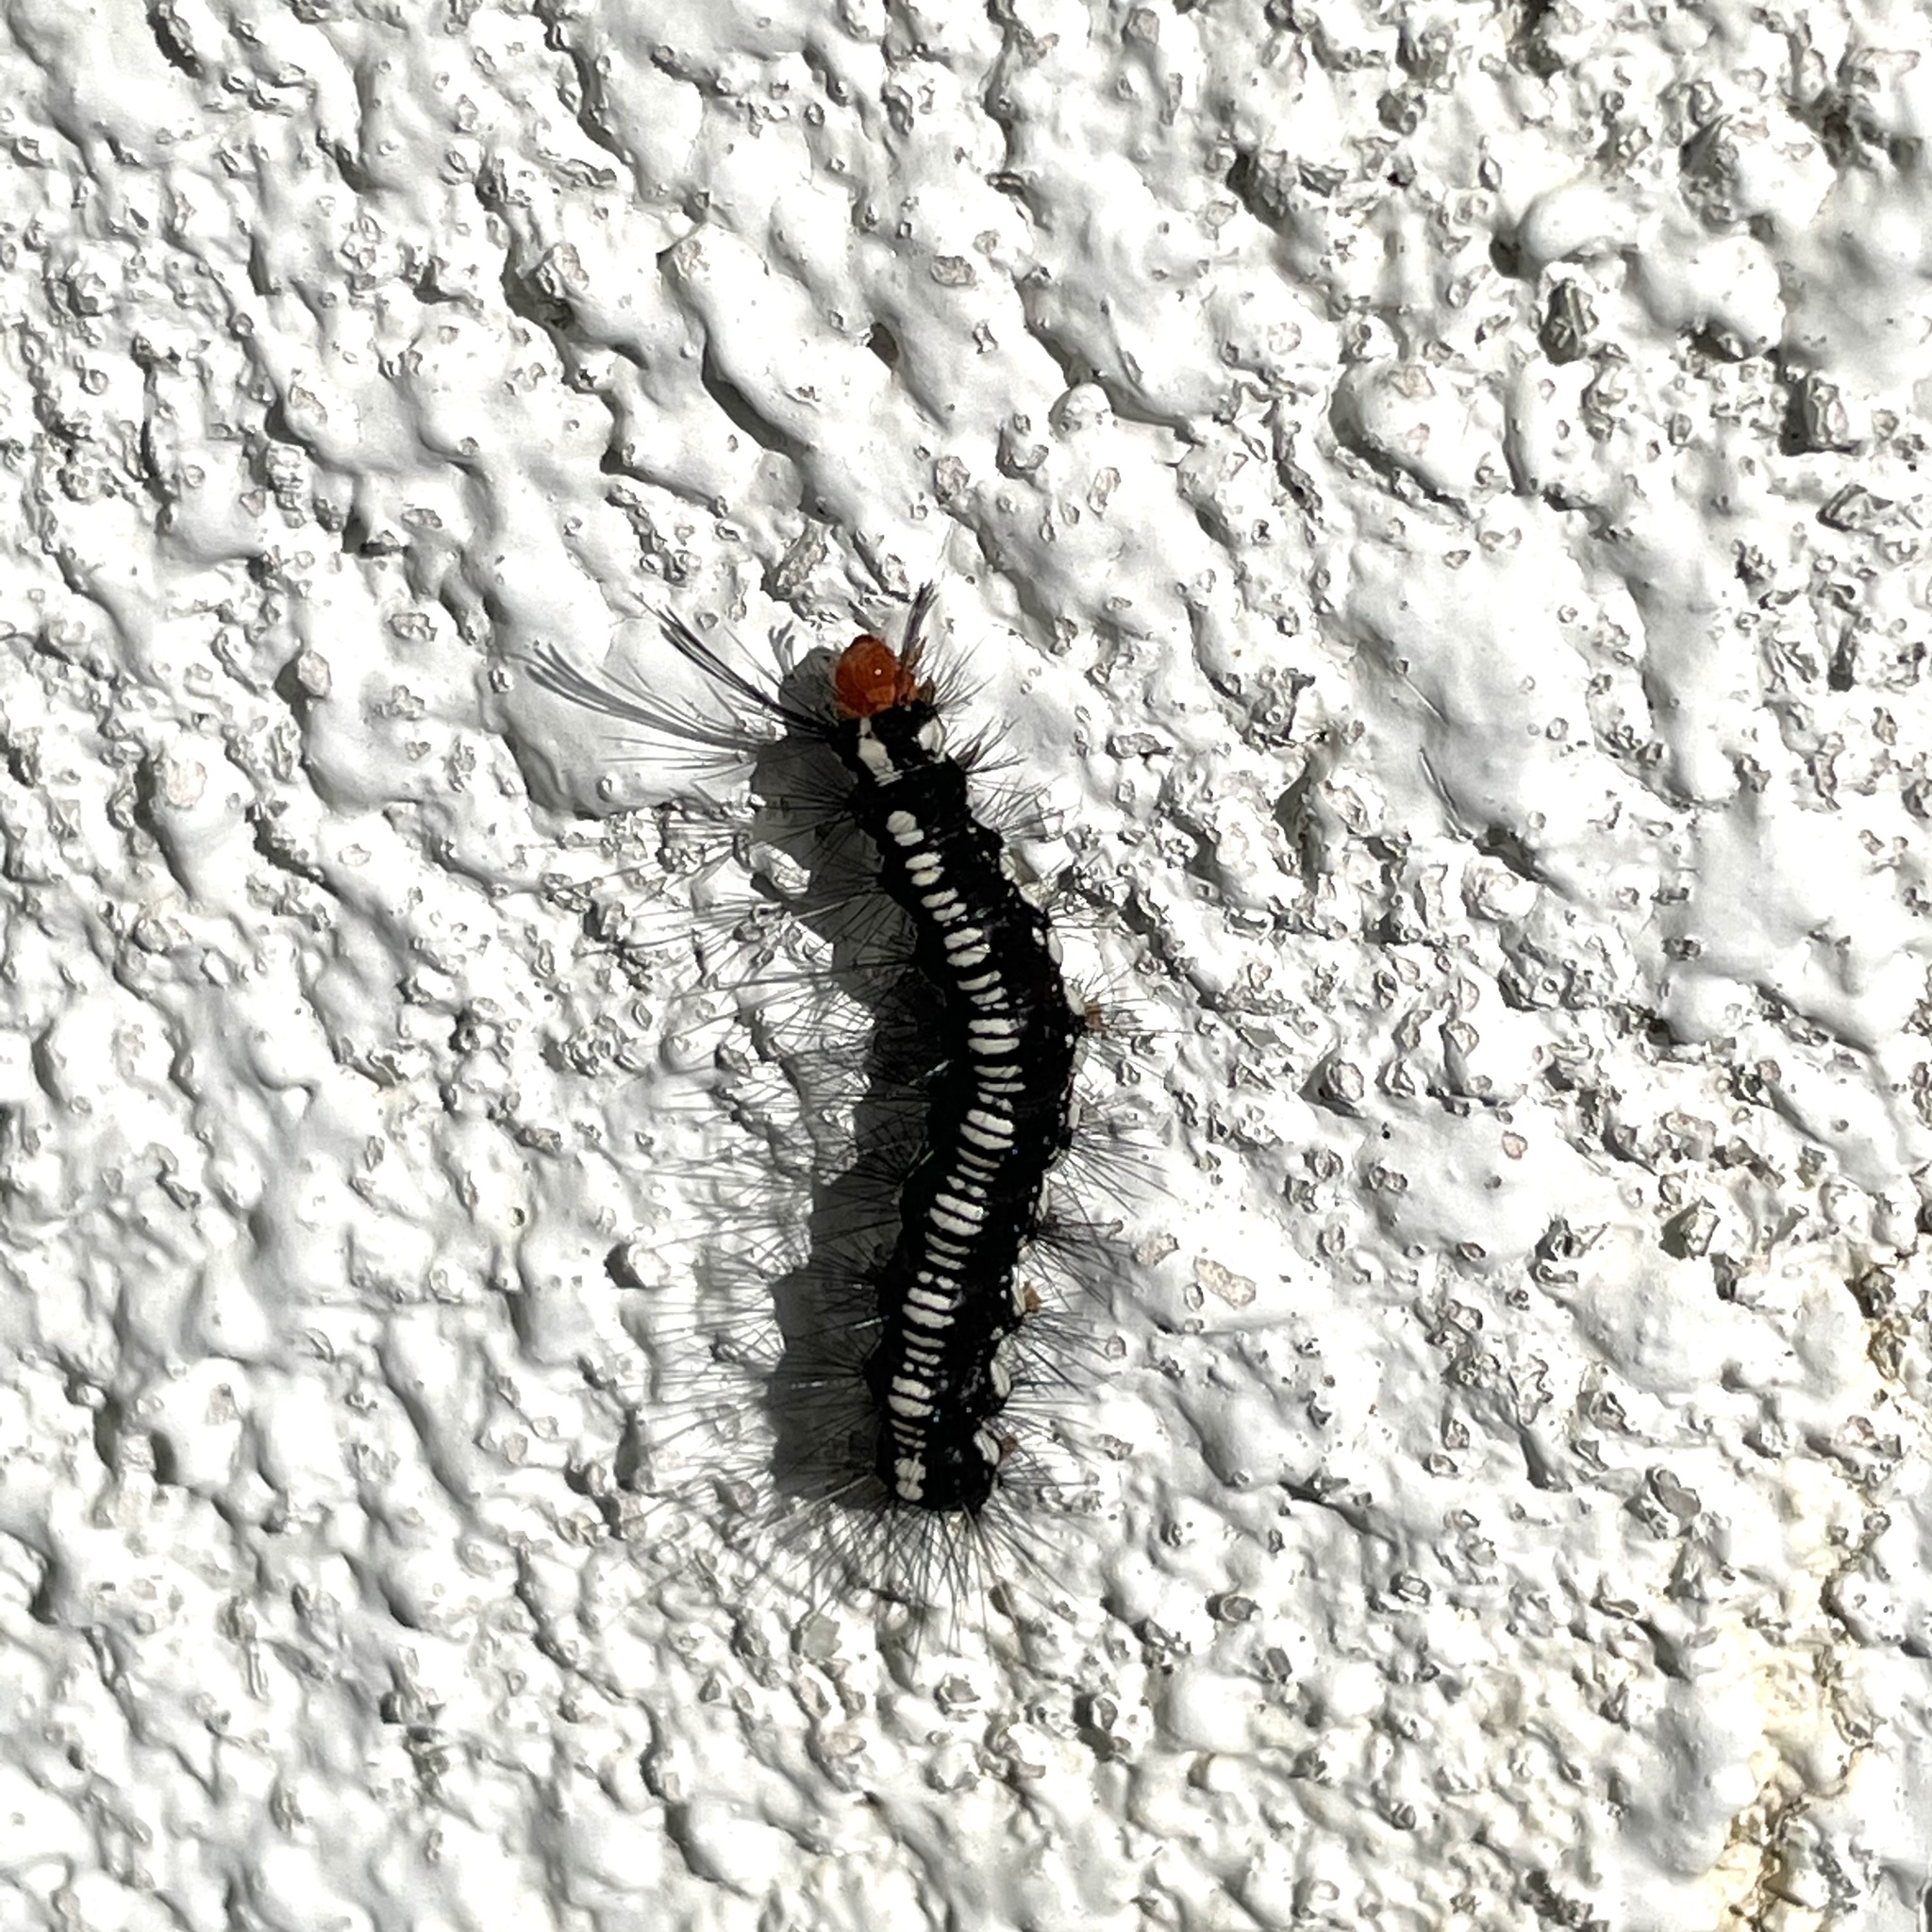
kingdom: Animalia
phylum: Arthropoda
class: Insecta
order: Lepidoptera
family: Erebidae
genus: Nyctemera
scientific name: Nyctemera adversata
